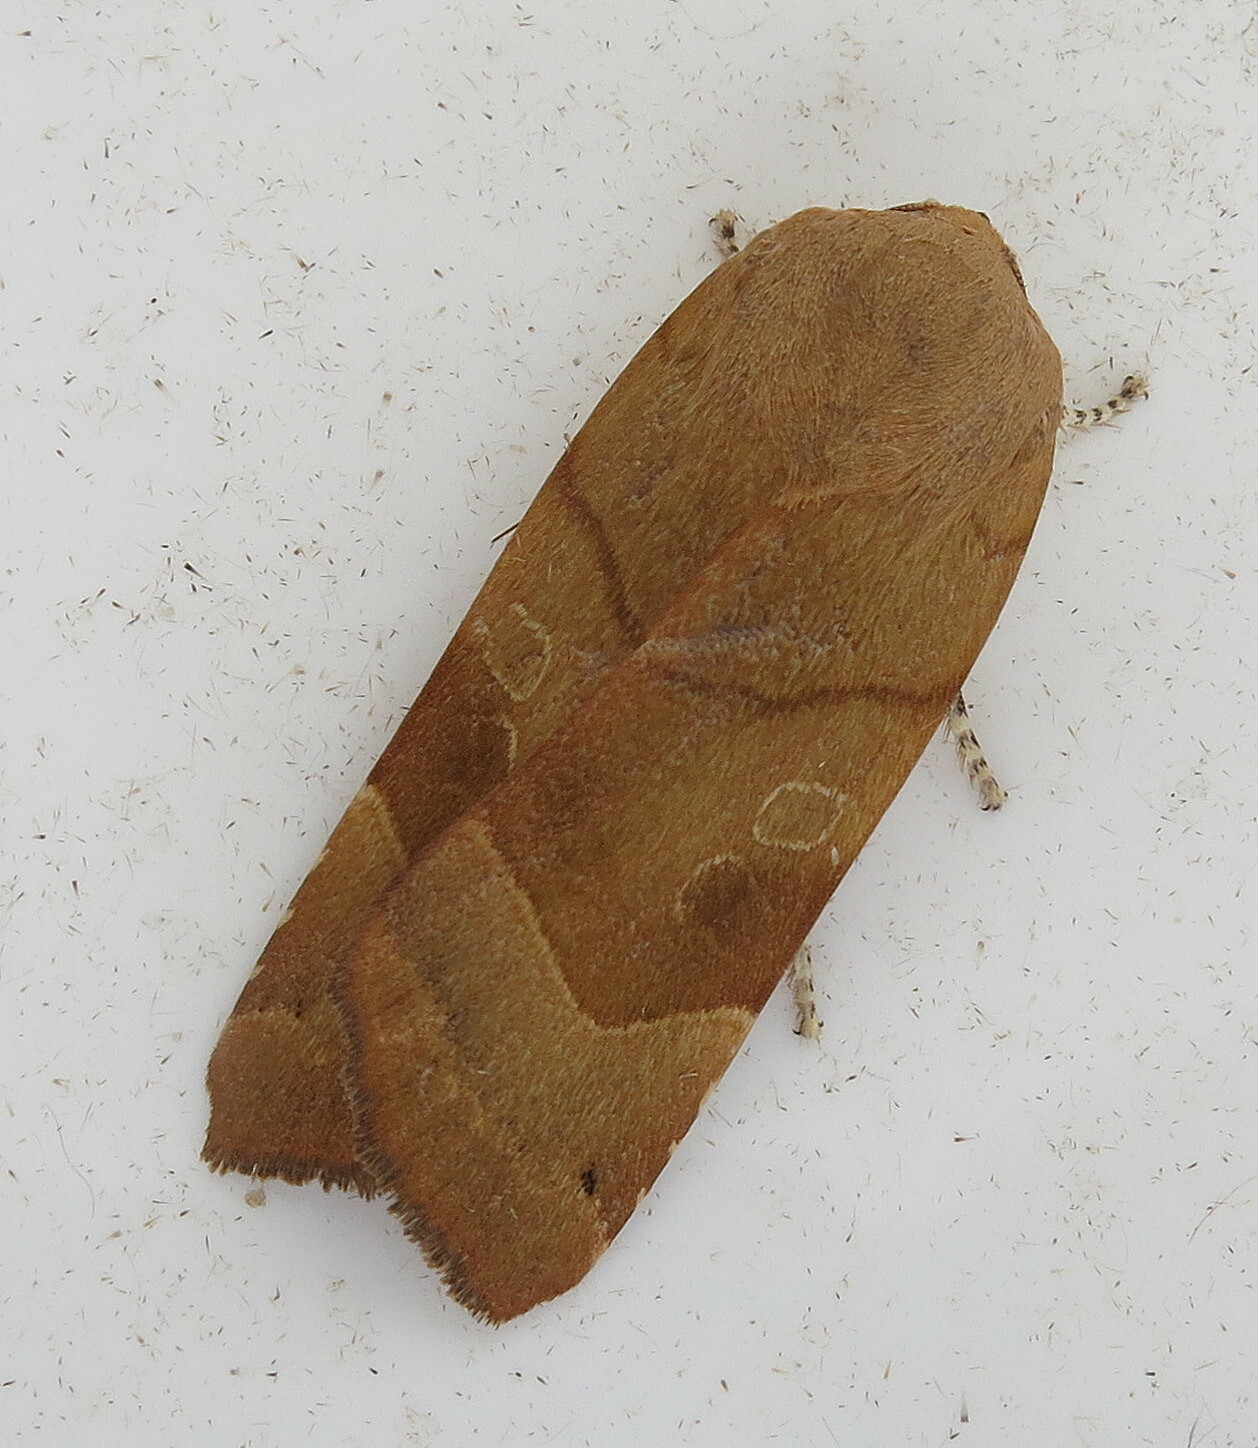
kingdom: Animalia
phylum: Arthropoda
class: Insecta
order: Lepidoptera
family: Noctuidae
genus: Noctua
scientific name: Noctua fimbriata
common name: Broad-bordered yellow underwing
